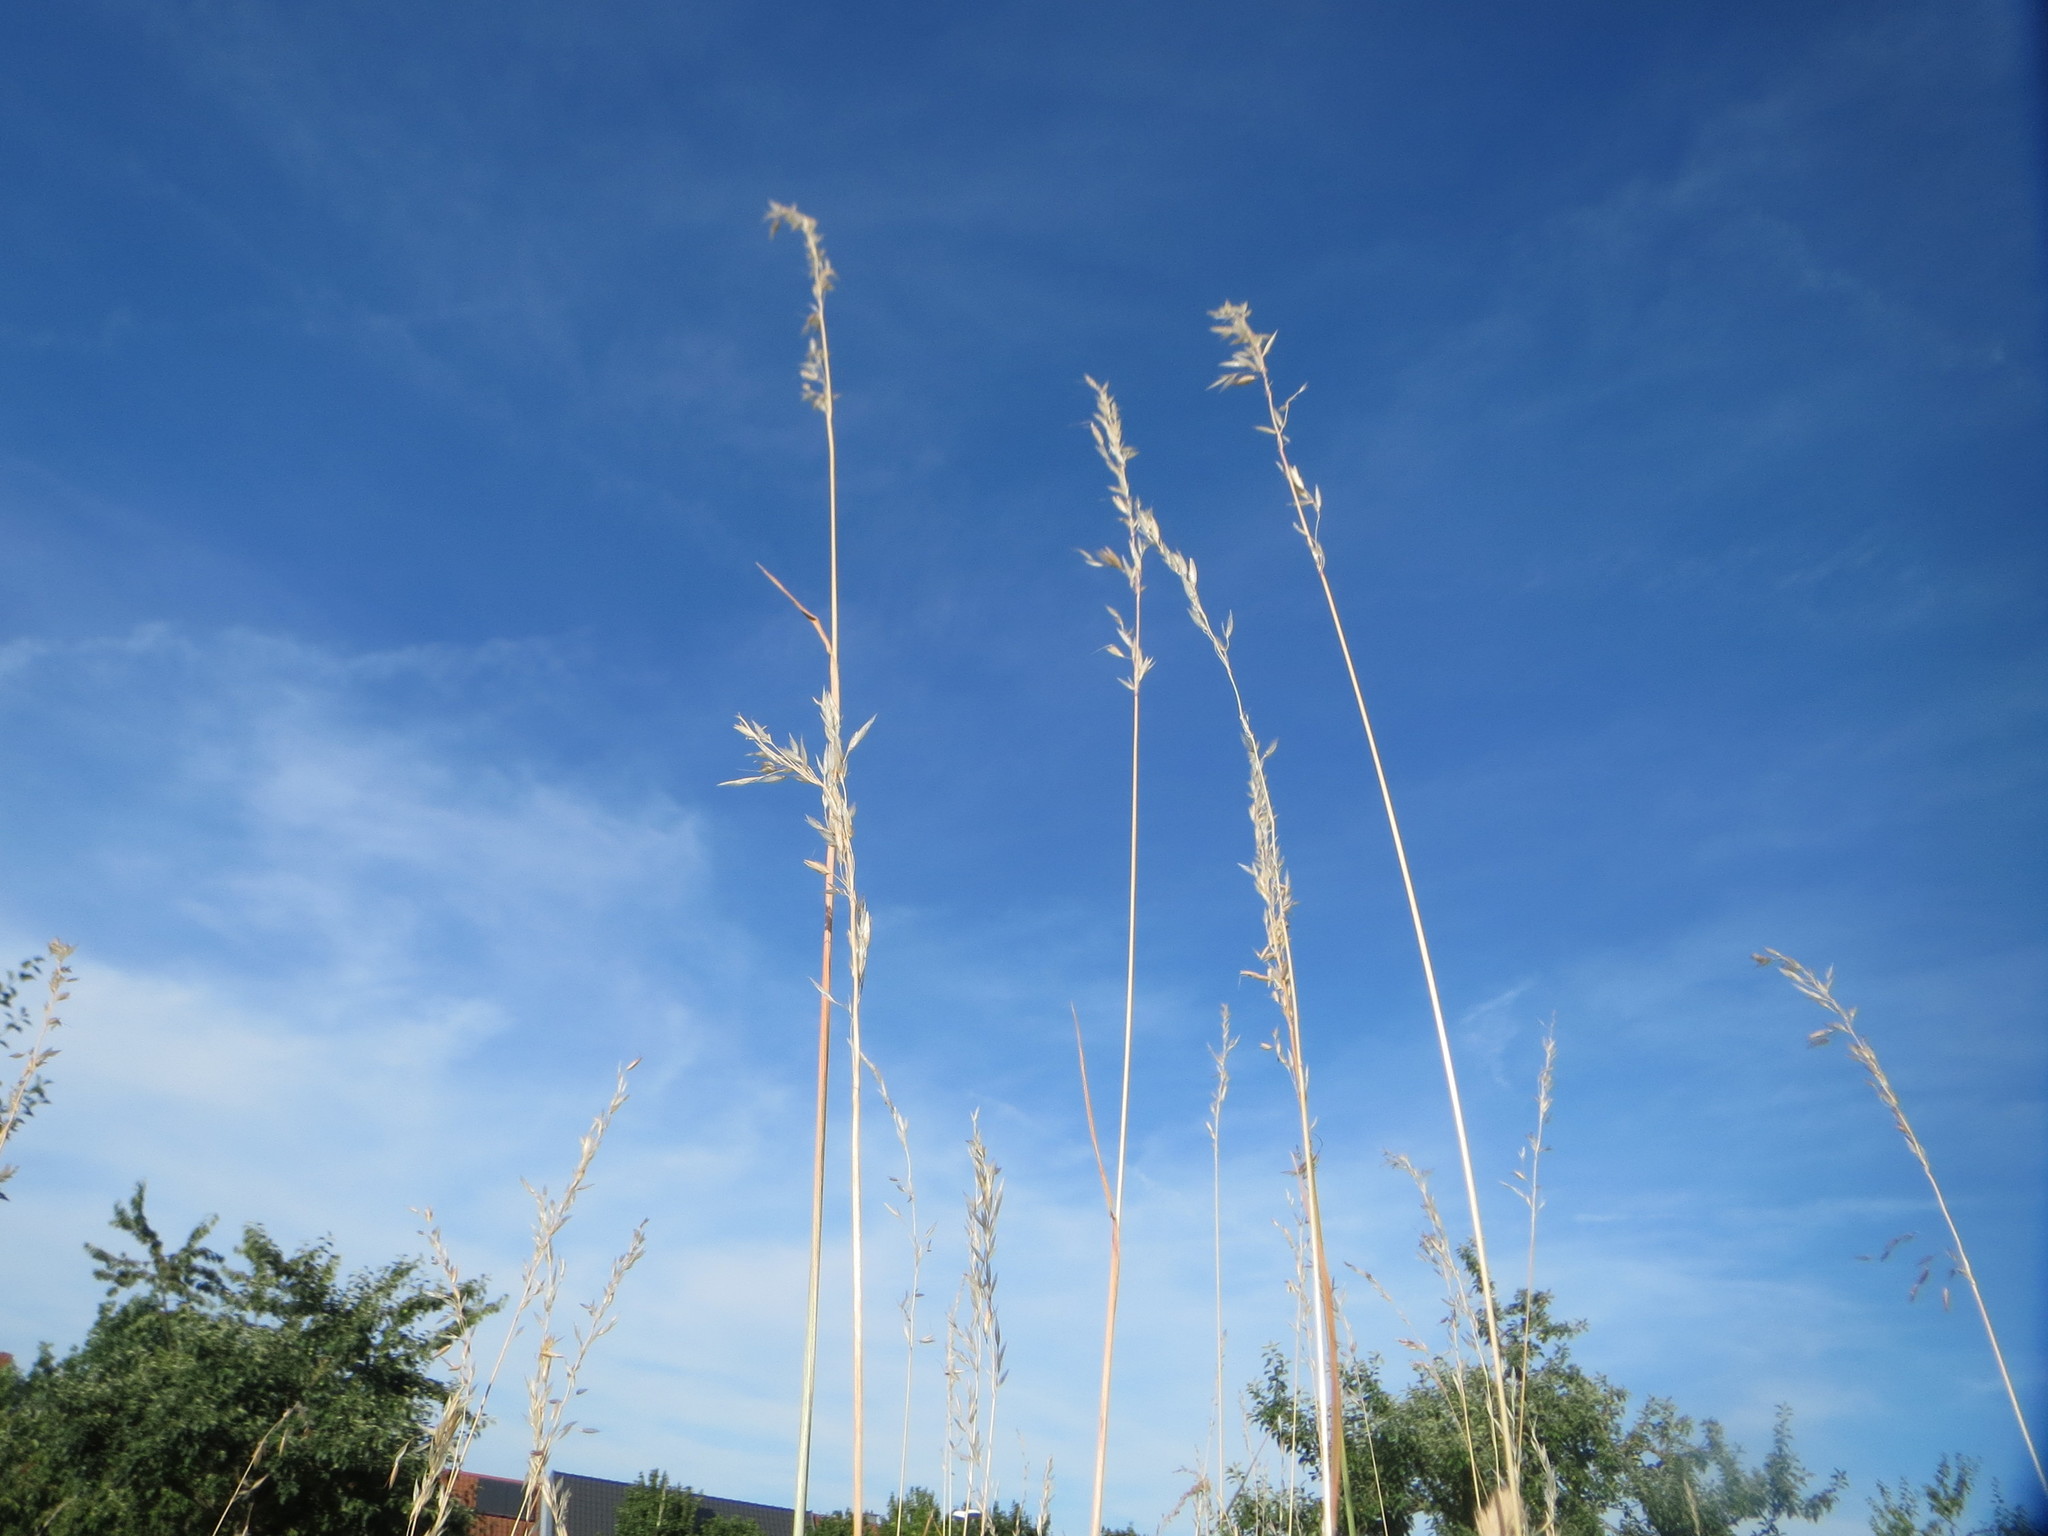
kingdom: Plantae
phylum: Tracheophyta
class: Liliopsida
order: Poales
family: Poaceae
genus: Arrhenatherum
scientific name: Arrhenatherum elatius
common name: Tall oatgrass
